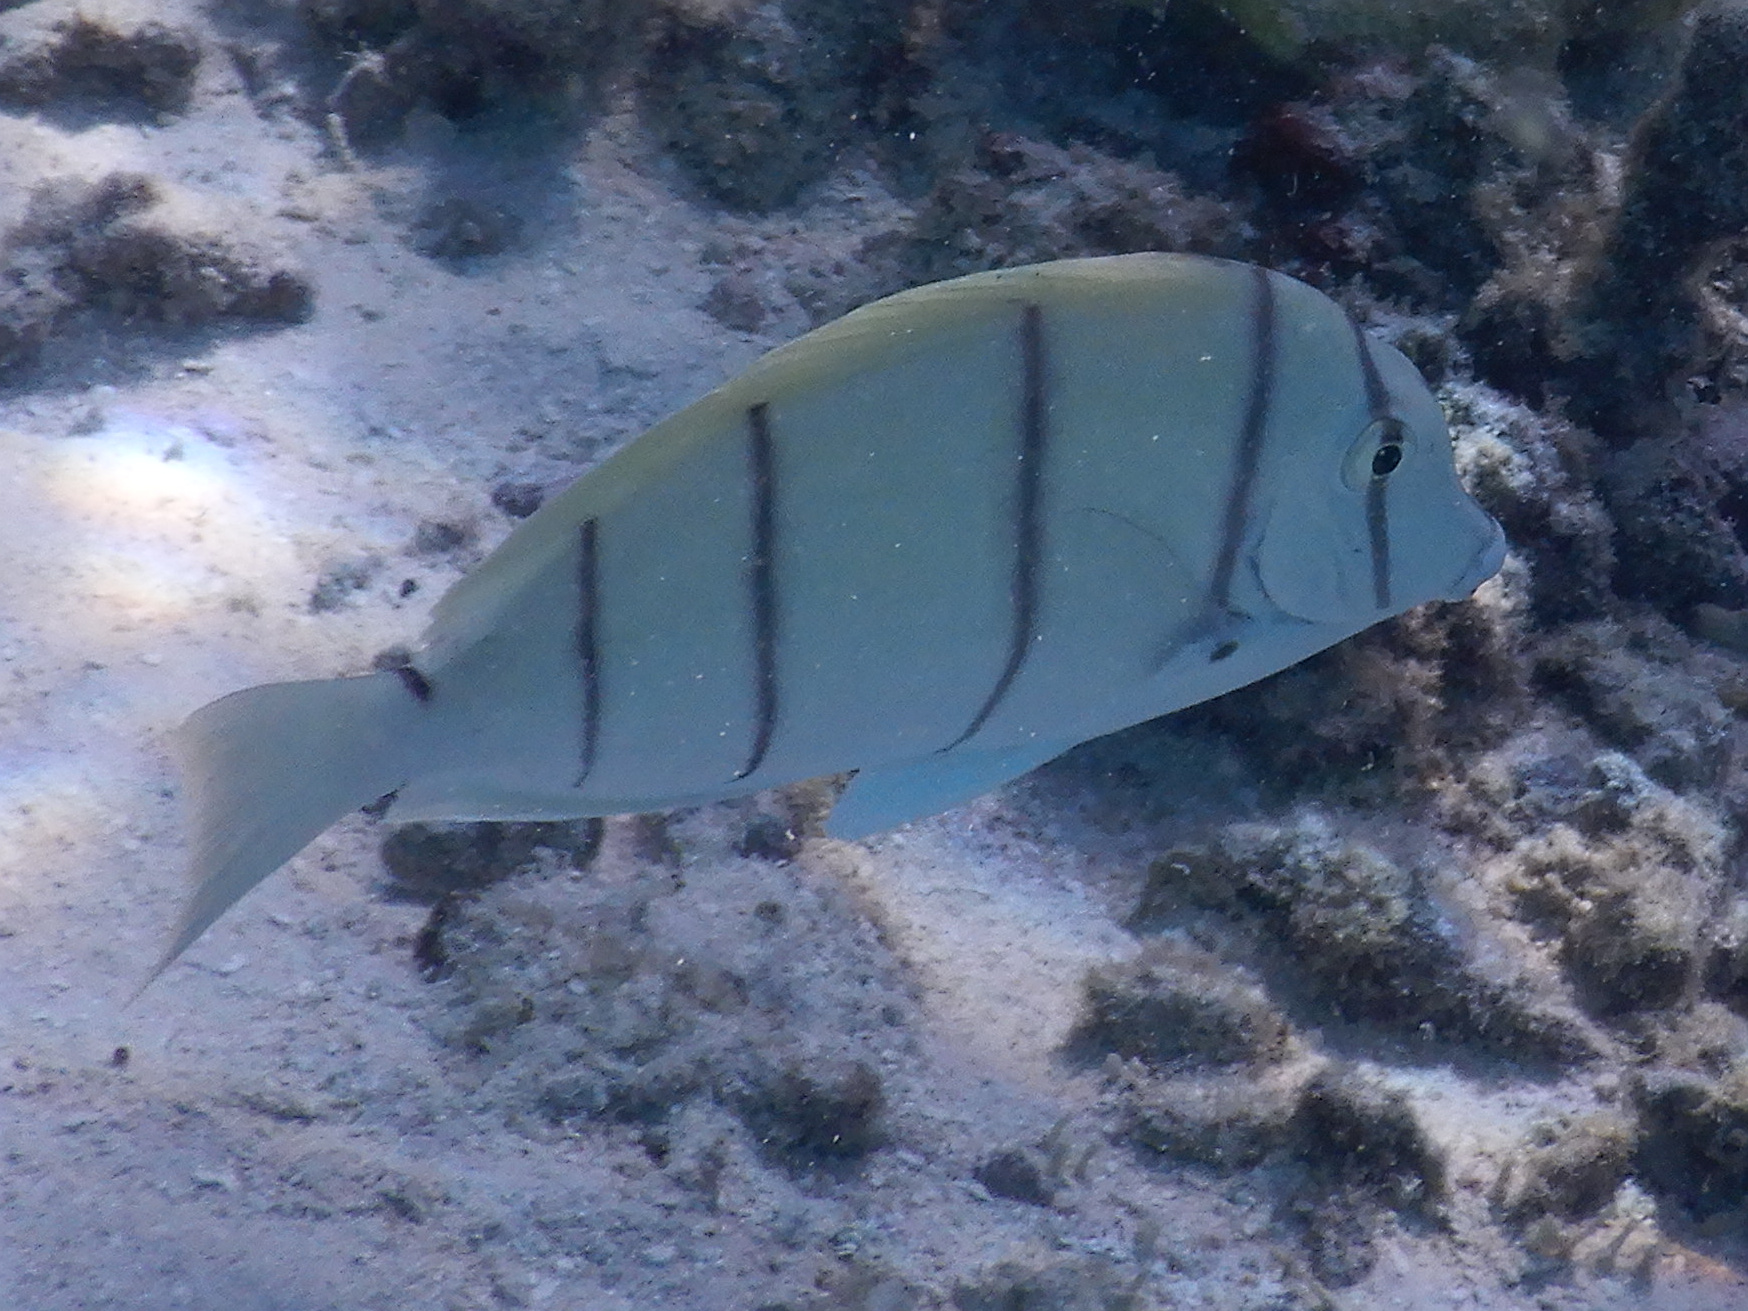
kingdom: Animalia
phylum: Chordata
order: Perciformes
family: Acanthuridae
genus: Acanthurus
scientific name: Acanthurus triostegus
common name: Convict surgeonfish
